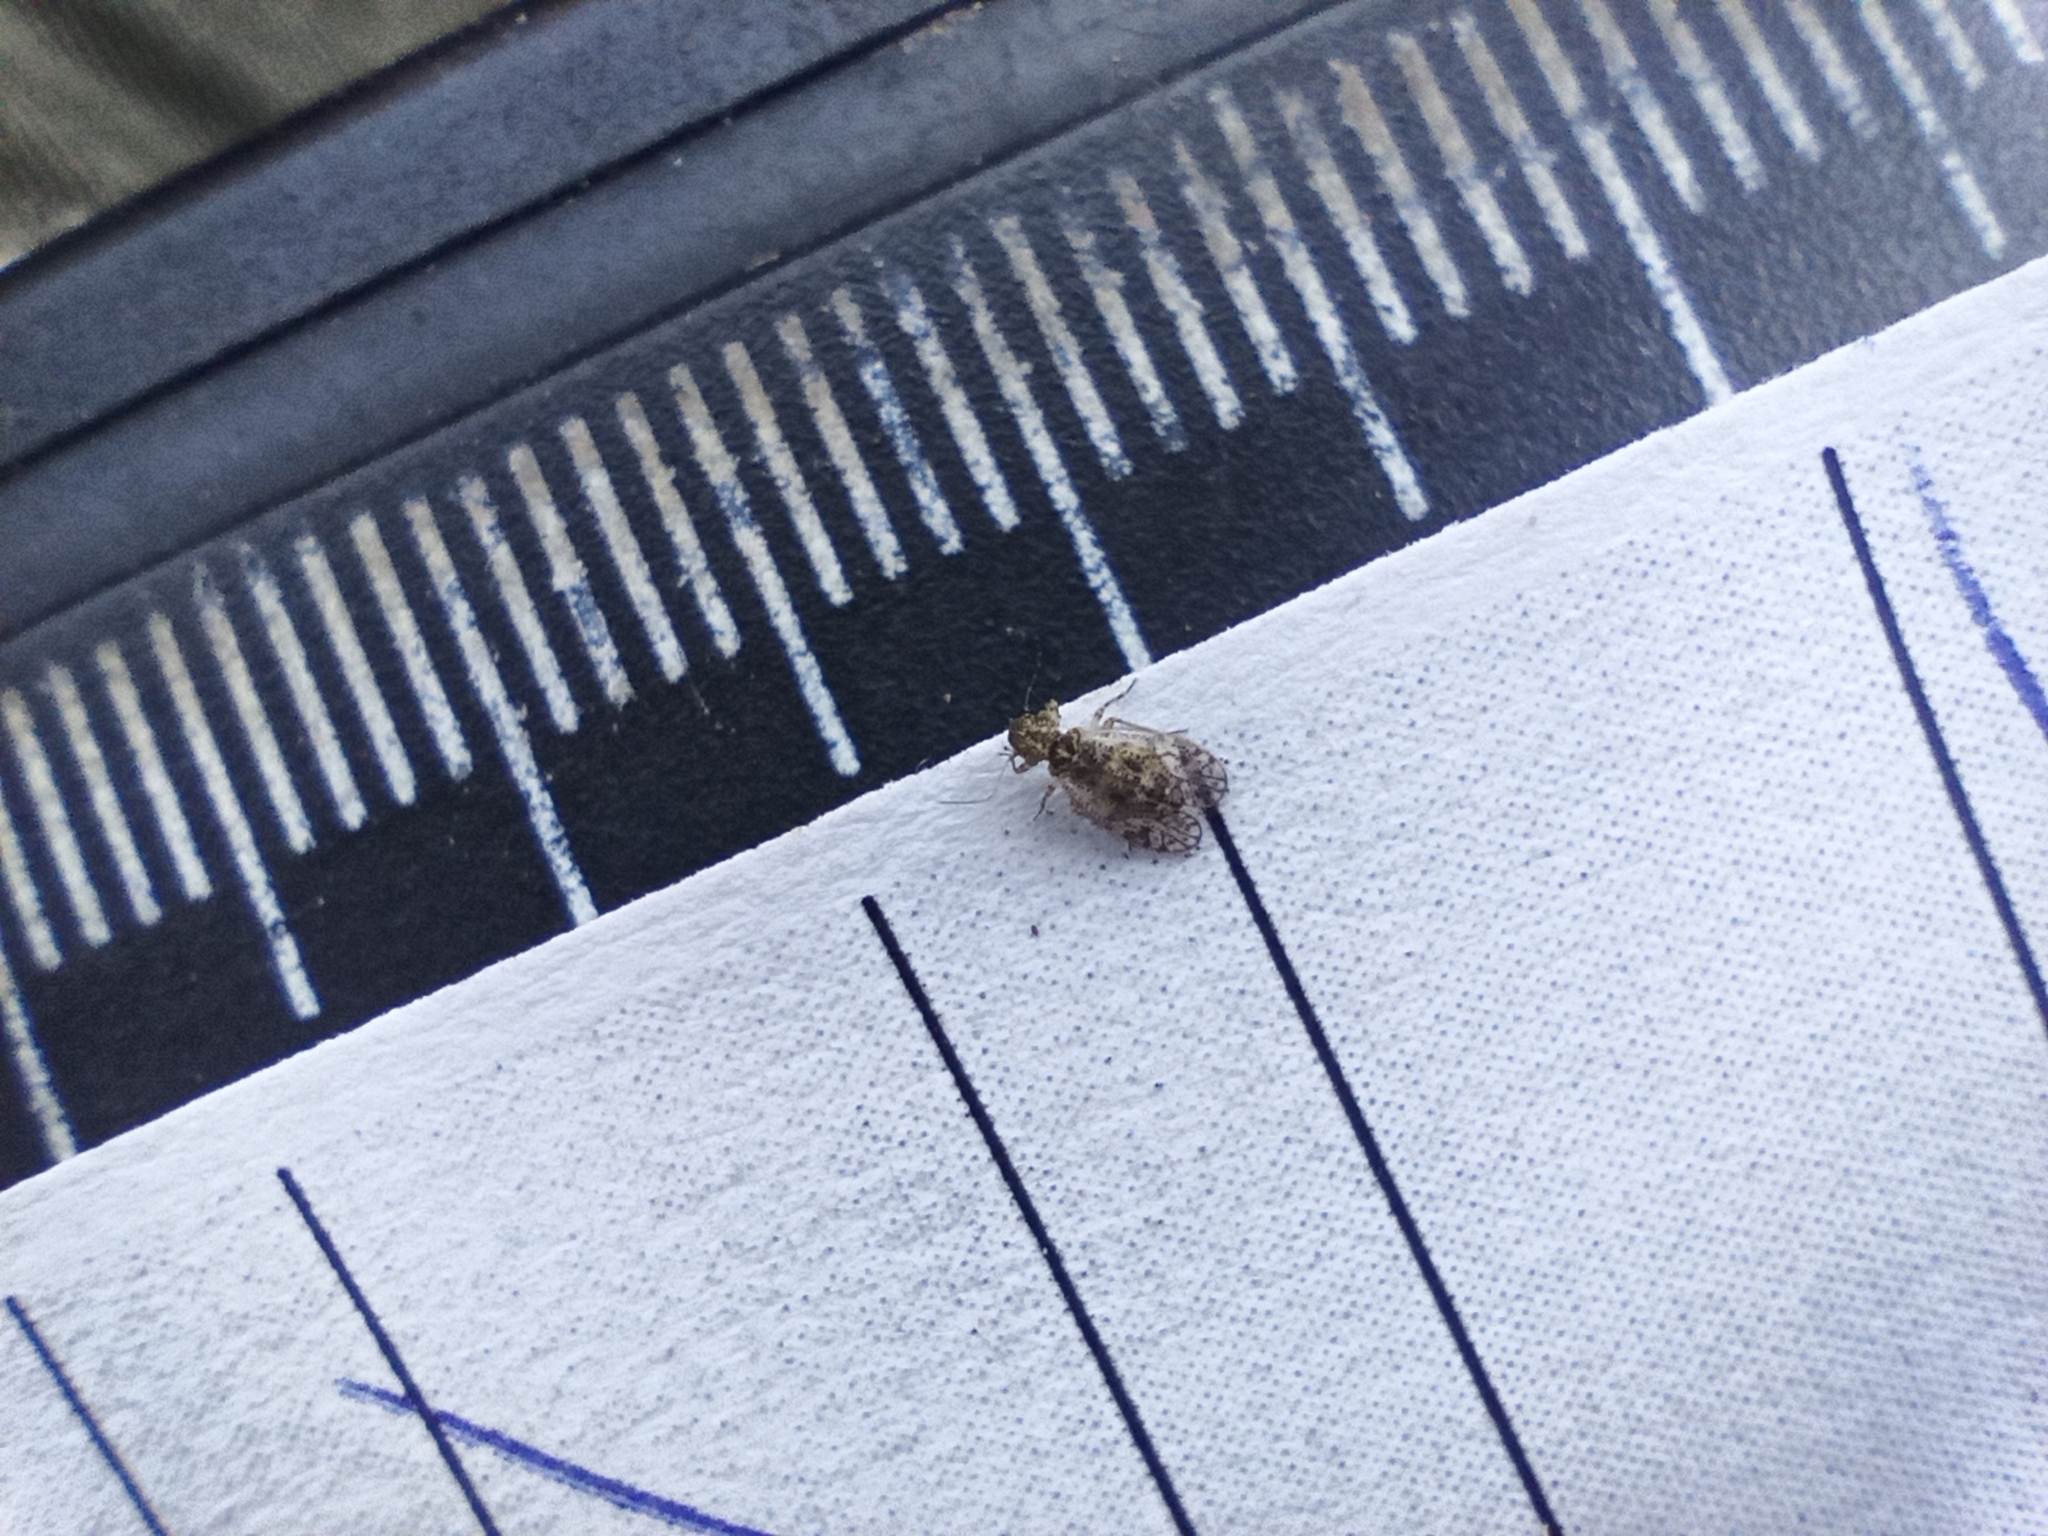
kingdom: Animalia
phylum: Arthropoda
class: Insecta
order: Psocodea
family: Philotarsidae
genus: Aaroniella
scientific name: Aaroniella badonneli
